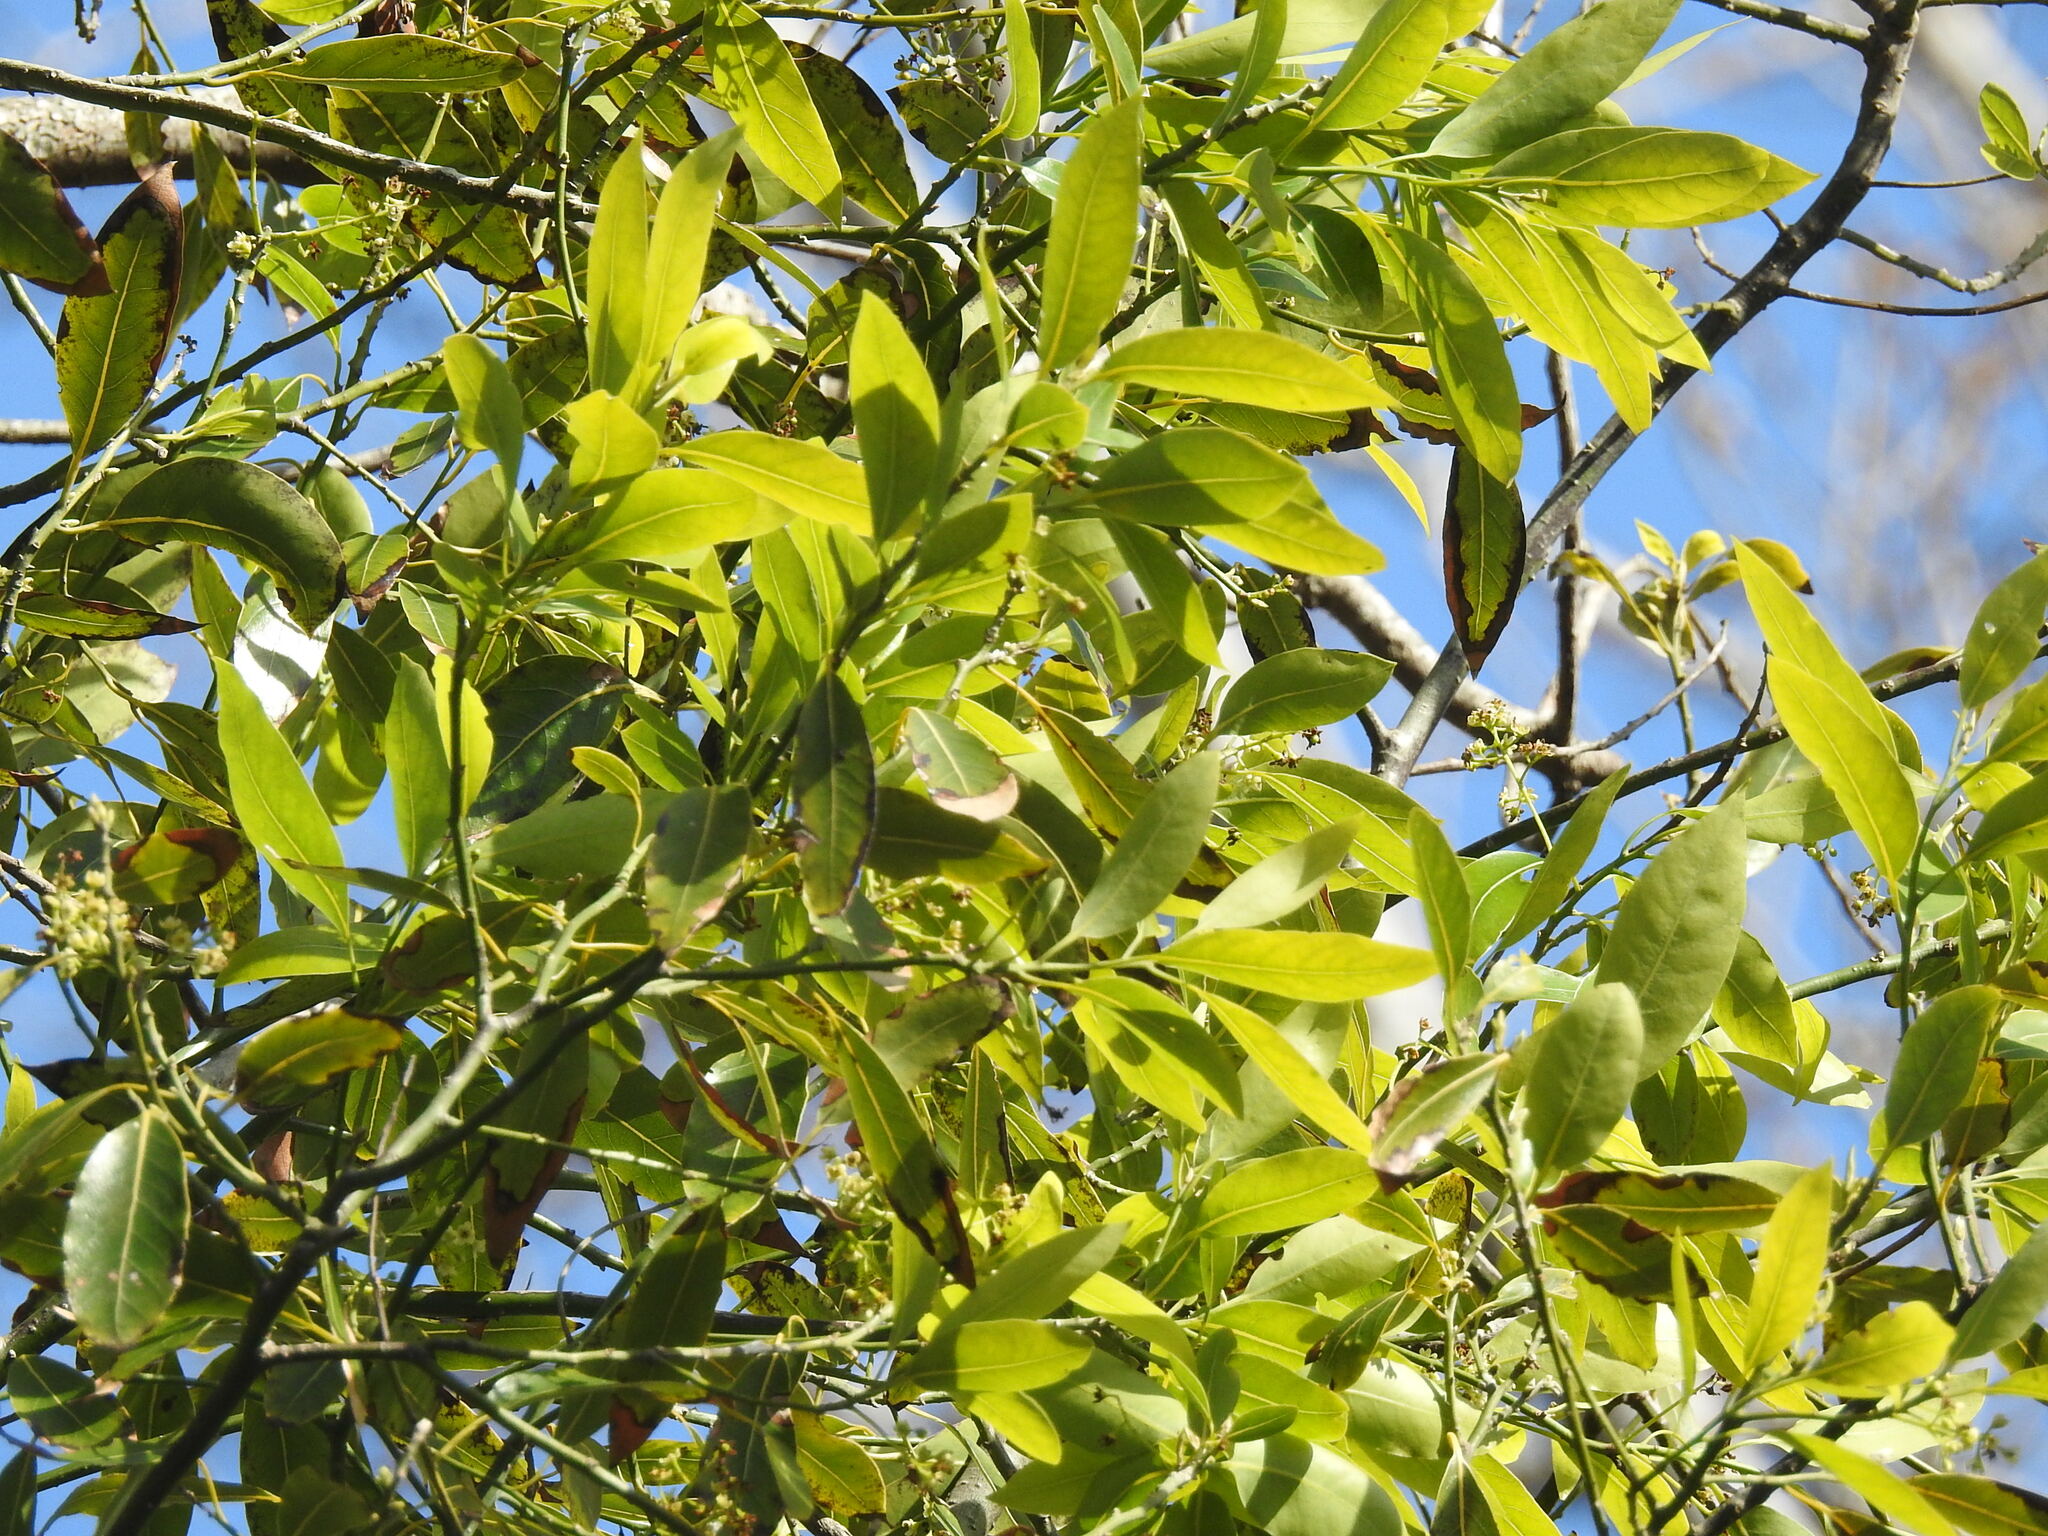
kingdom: Plantae
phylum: Tracheophyta
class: Magnoliopsida
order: Laurales
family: Lauraceae
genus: Ocotea
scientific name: Ocotea acutifolia
